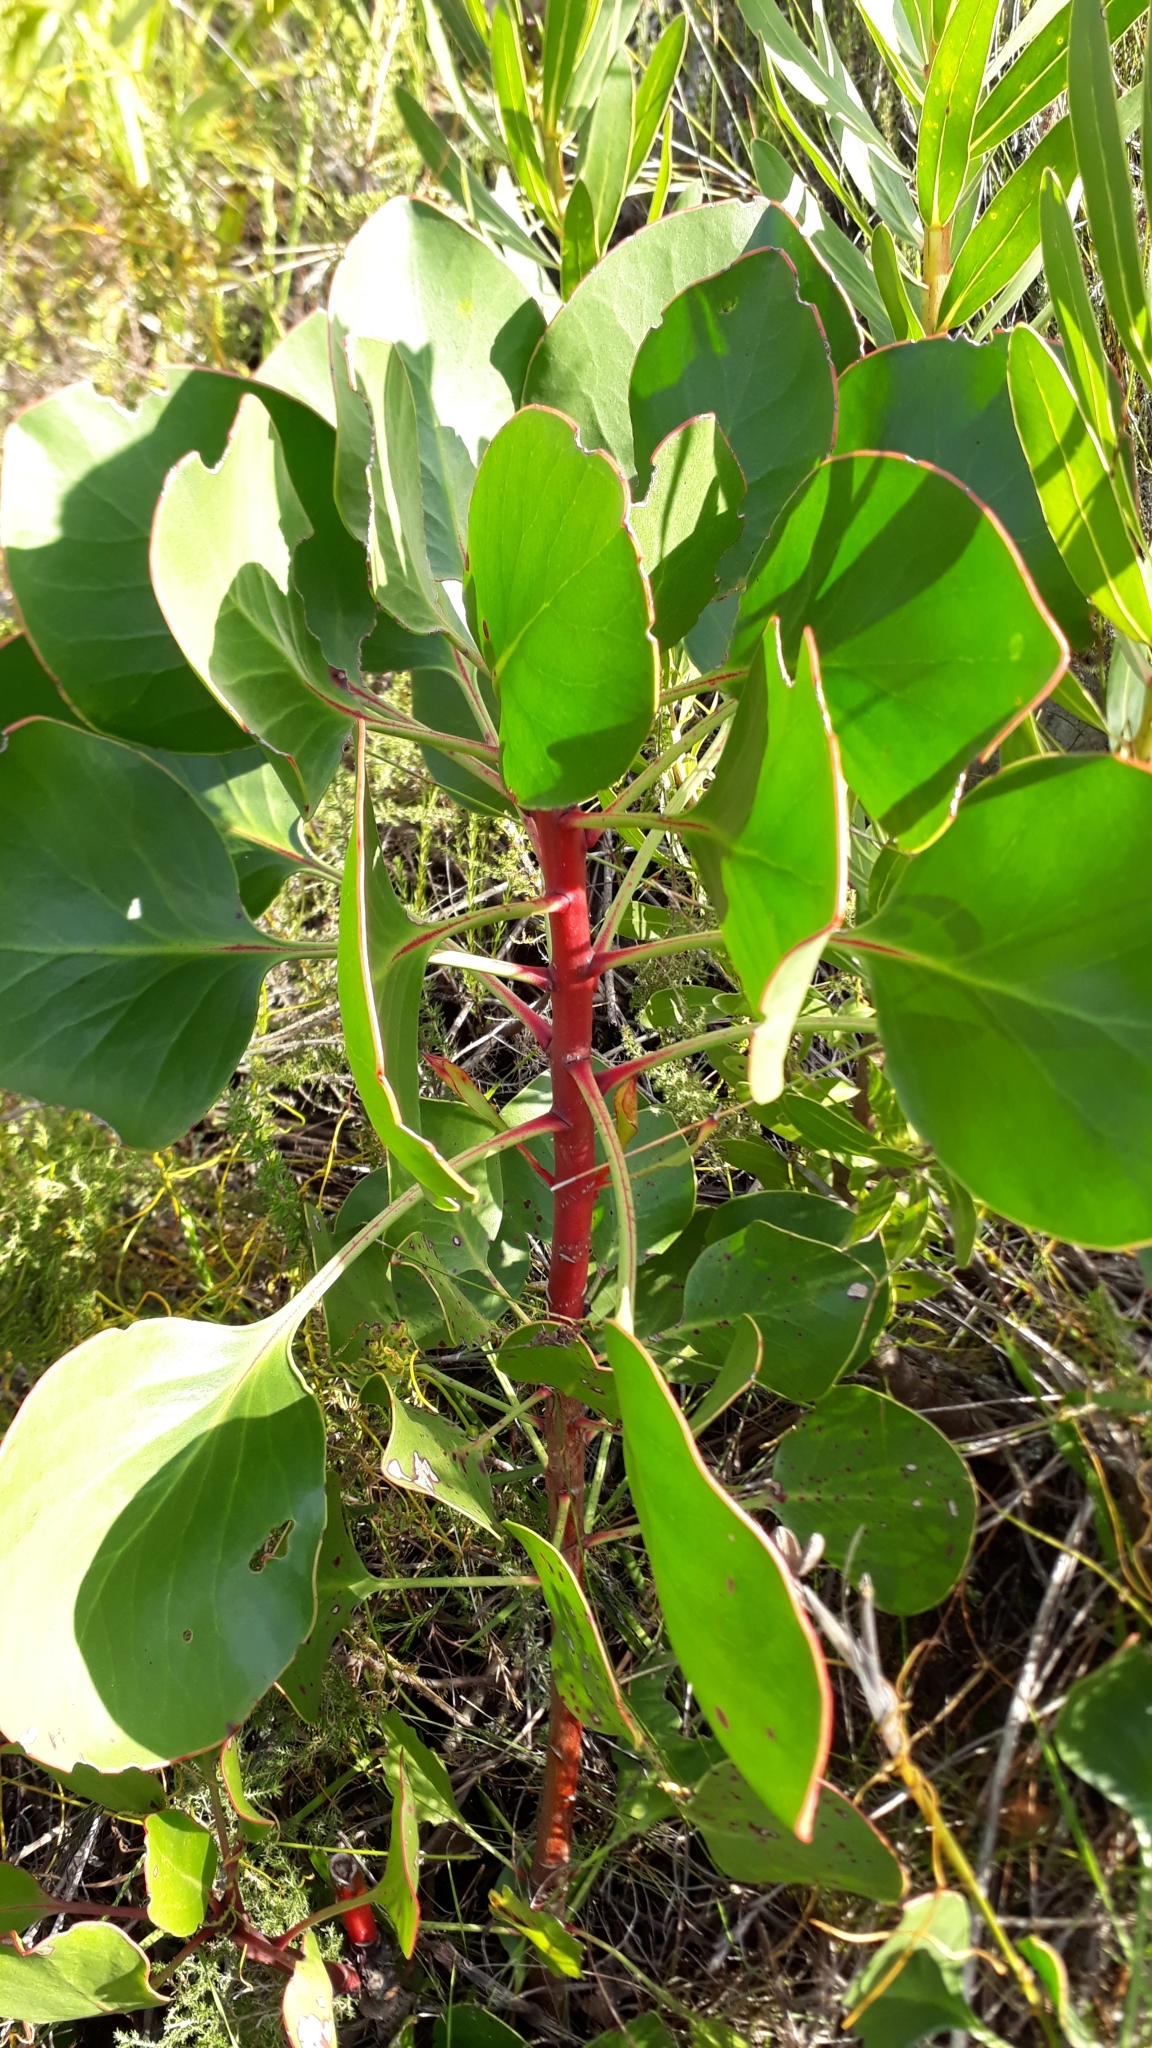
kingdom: Plantae
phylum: Tracheophyta
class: Magnoliopsida
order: Proteales
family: Proteaceae
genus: Protea
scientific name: Protea cynaroides
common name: King protea
